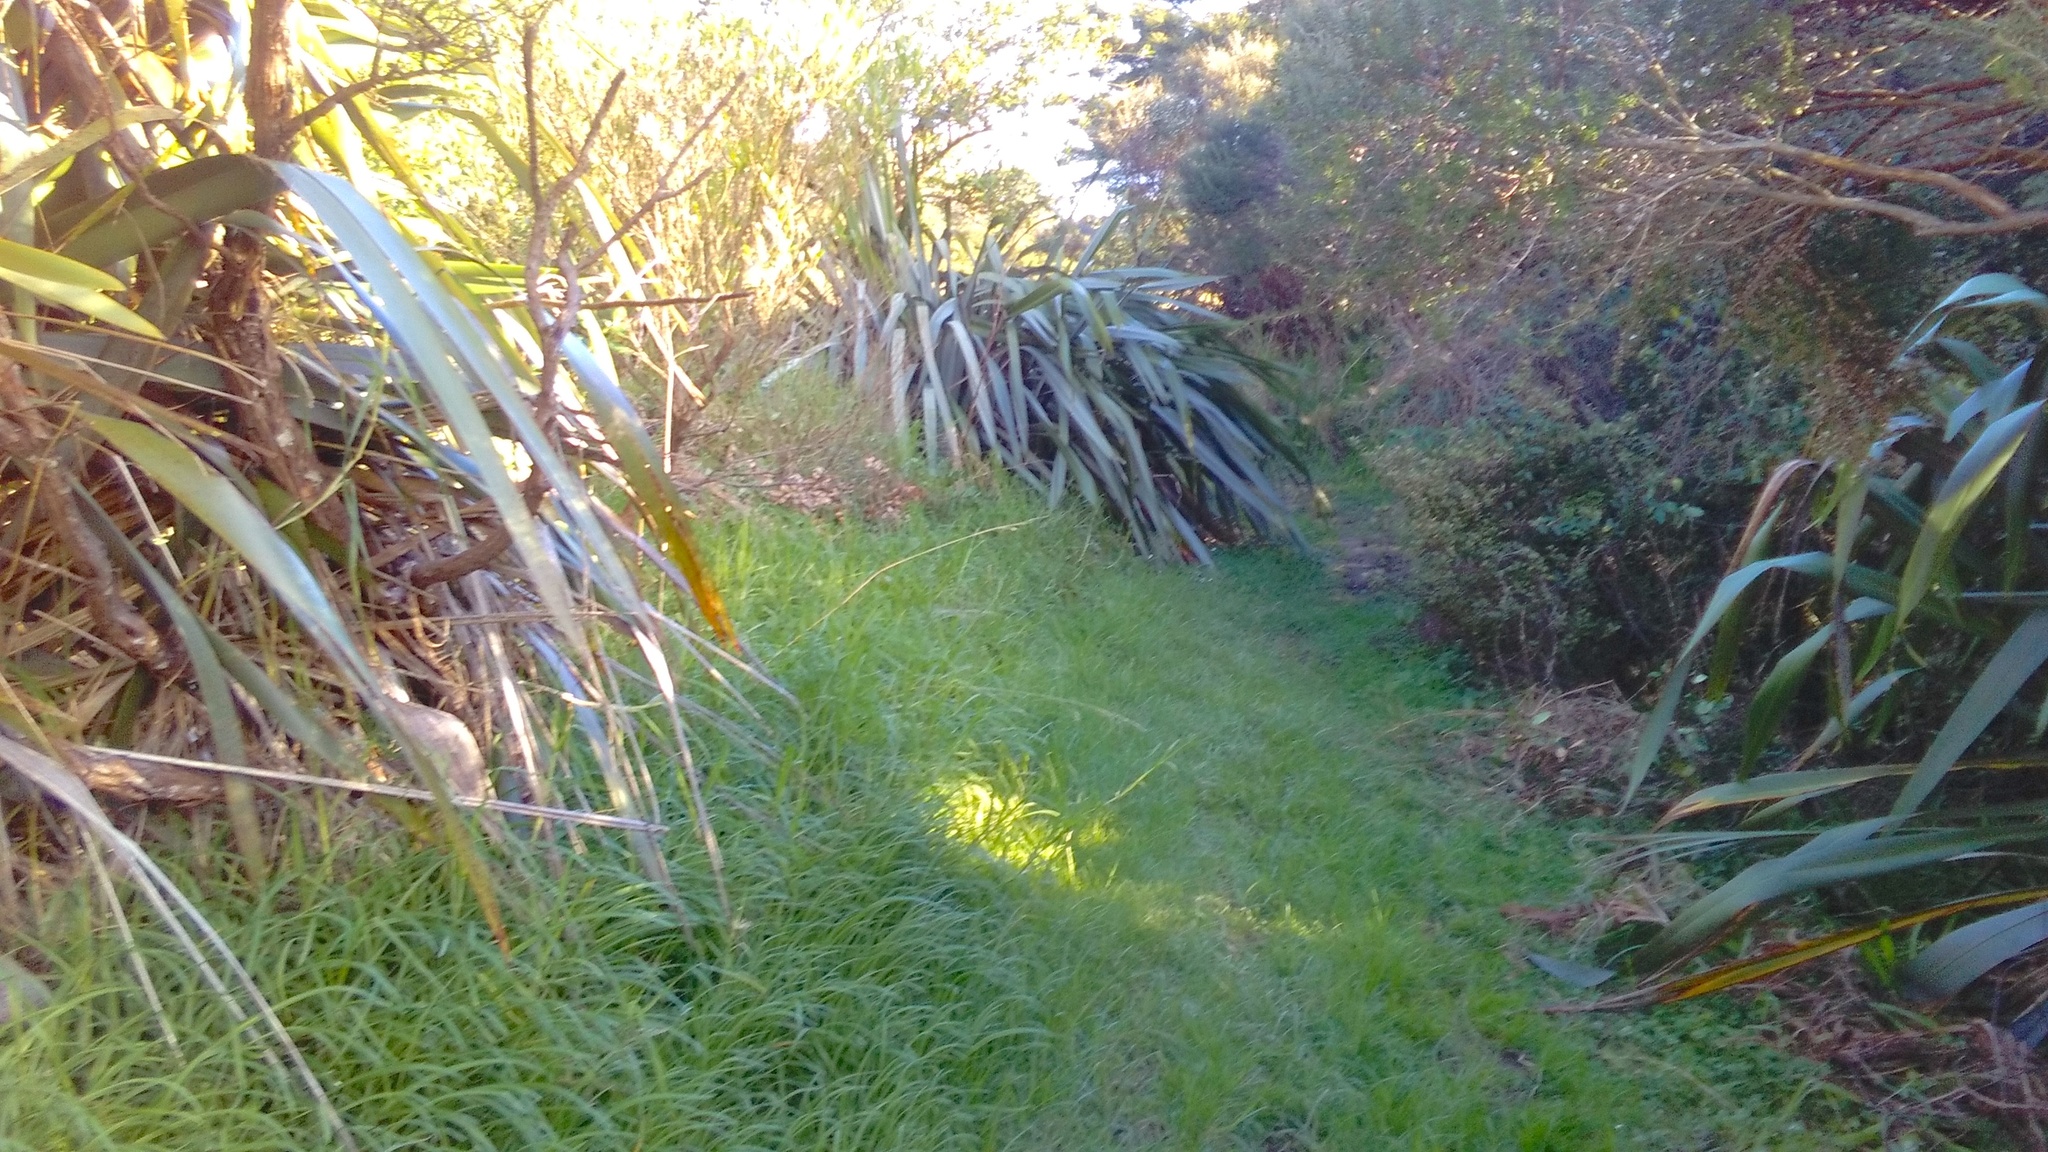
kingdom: Plantae
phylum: Tracheophyta
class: Liliopsida
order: Poales
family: Poaceae
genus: Cenchrus
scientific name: Cenchrus clandestinus
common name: Kikuyugrass
